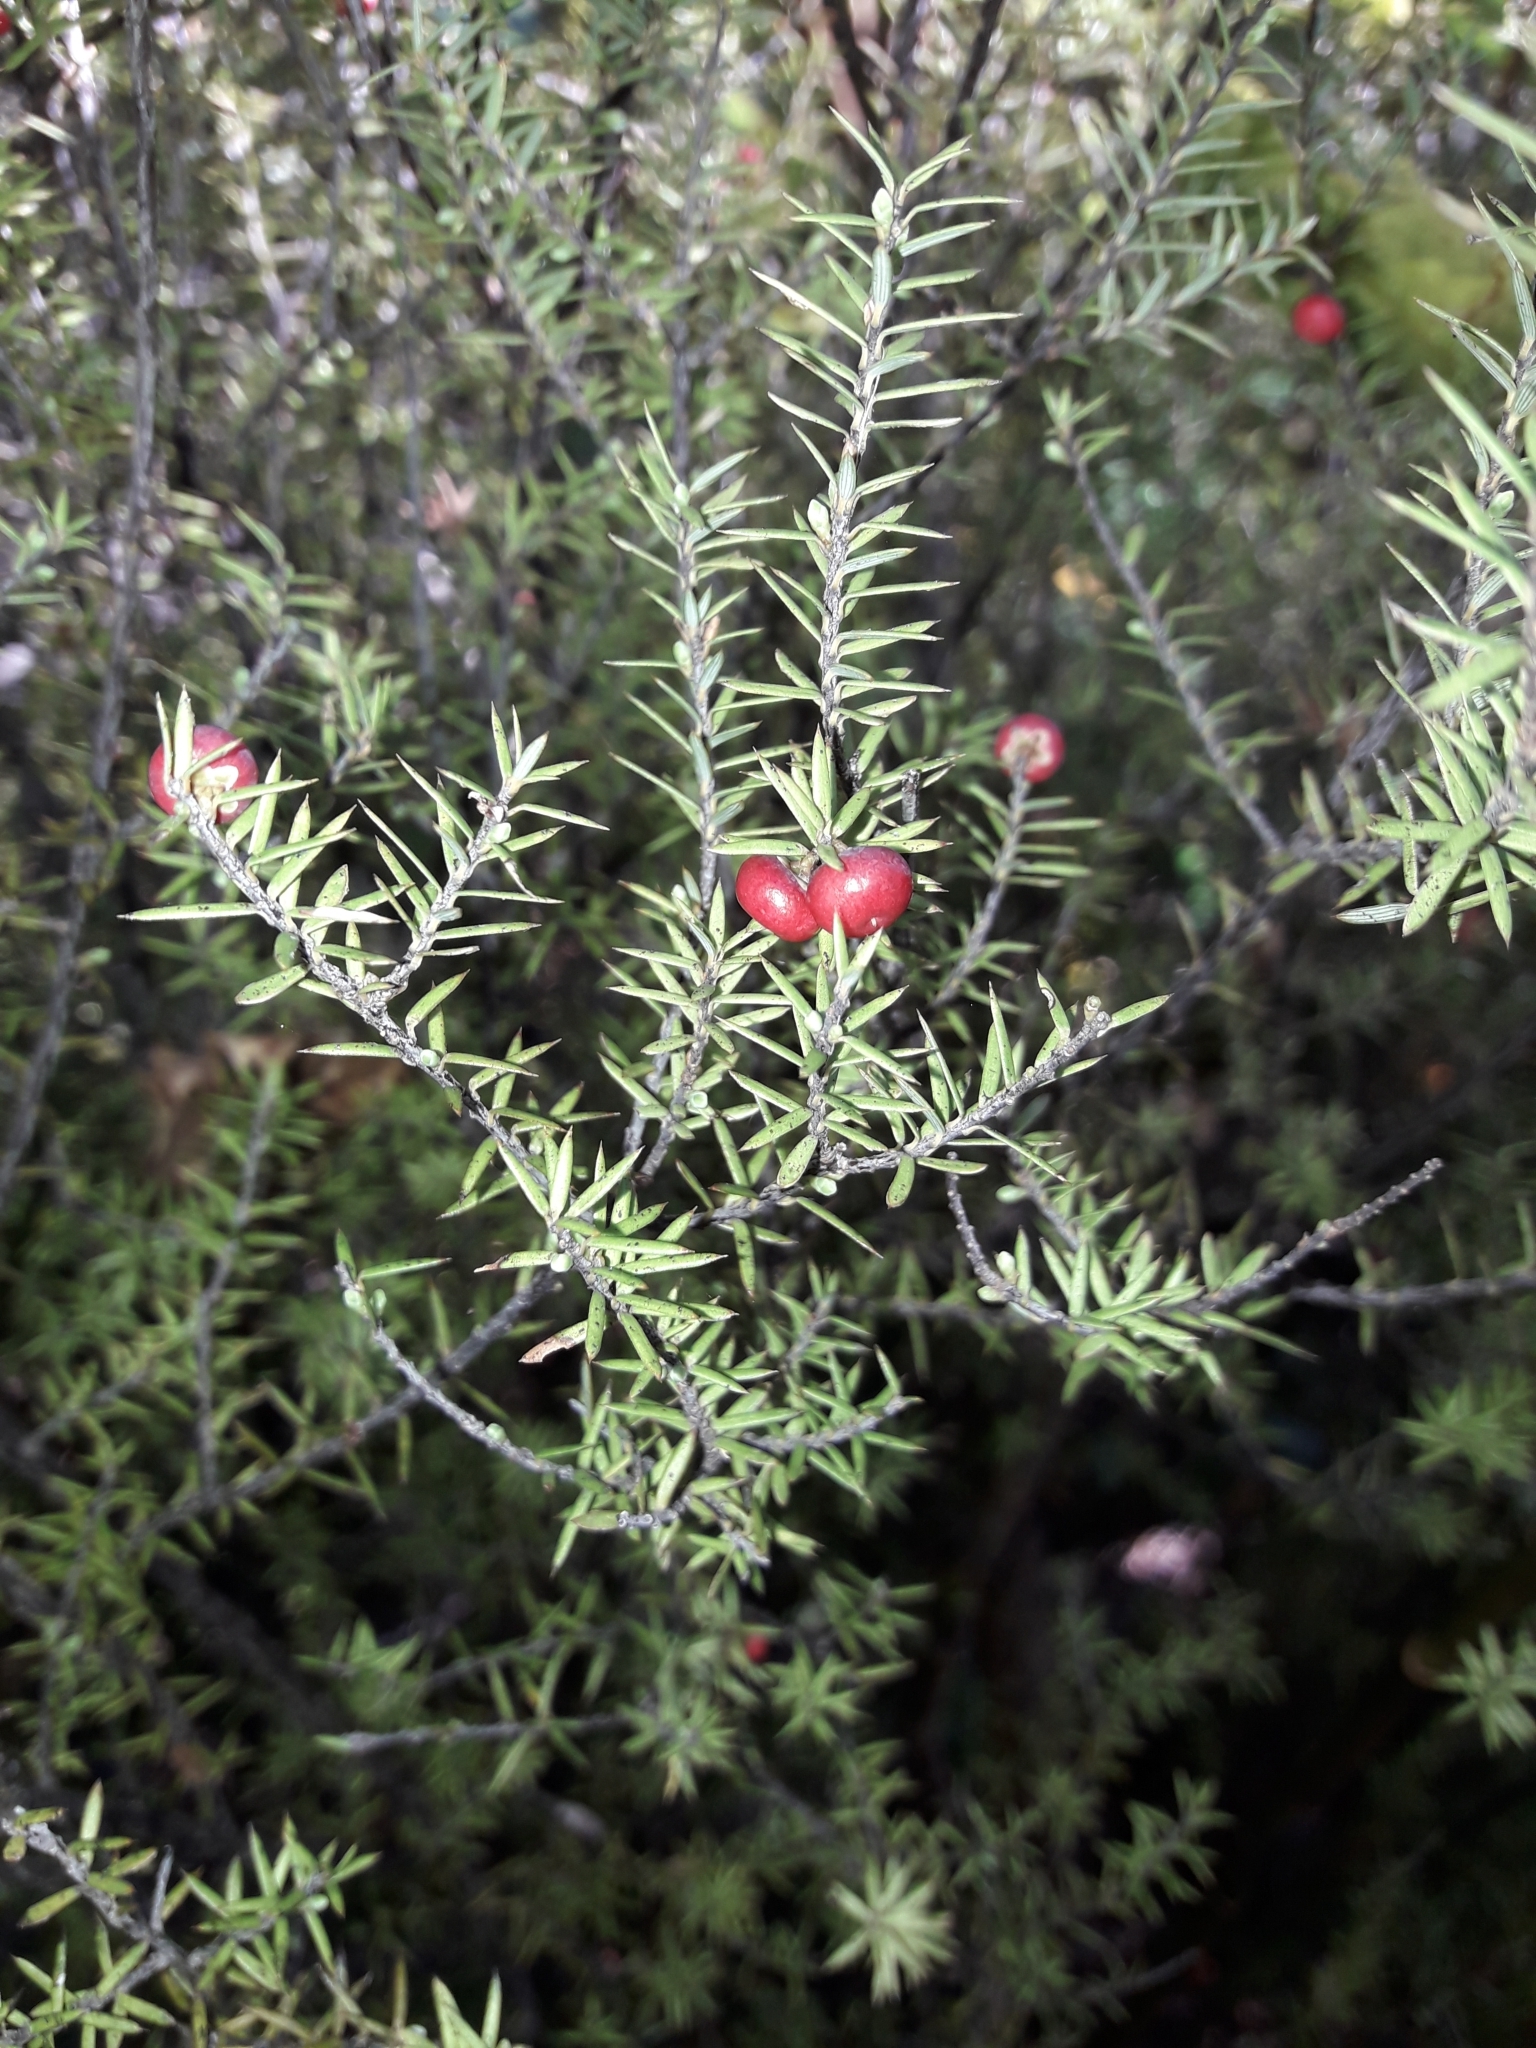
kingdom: Plantae
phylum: Tracheophyta
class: Magnoliopsida
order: Ericales
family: Ericaceae
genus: Leptecophylla
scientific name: Leptecophylla juniperina
